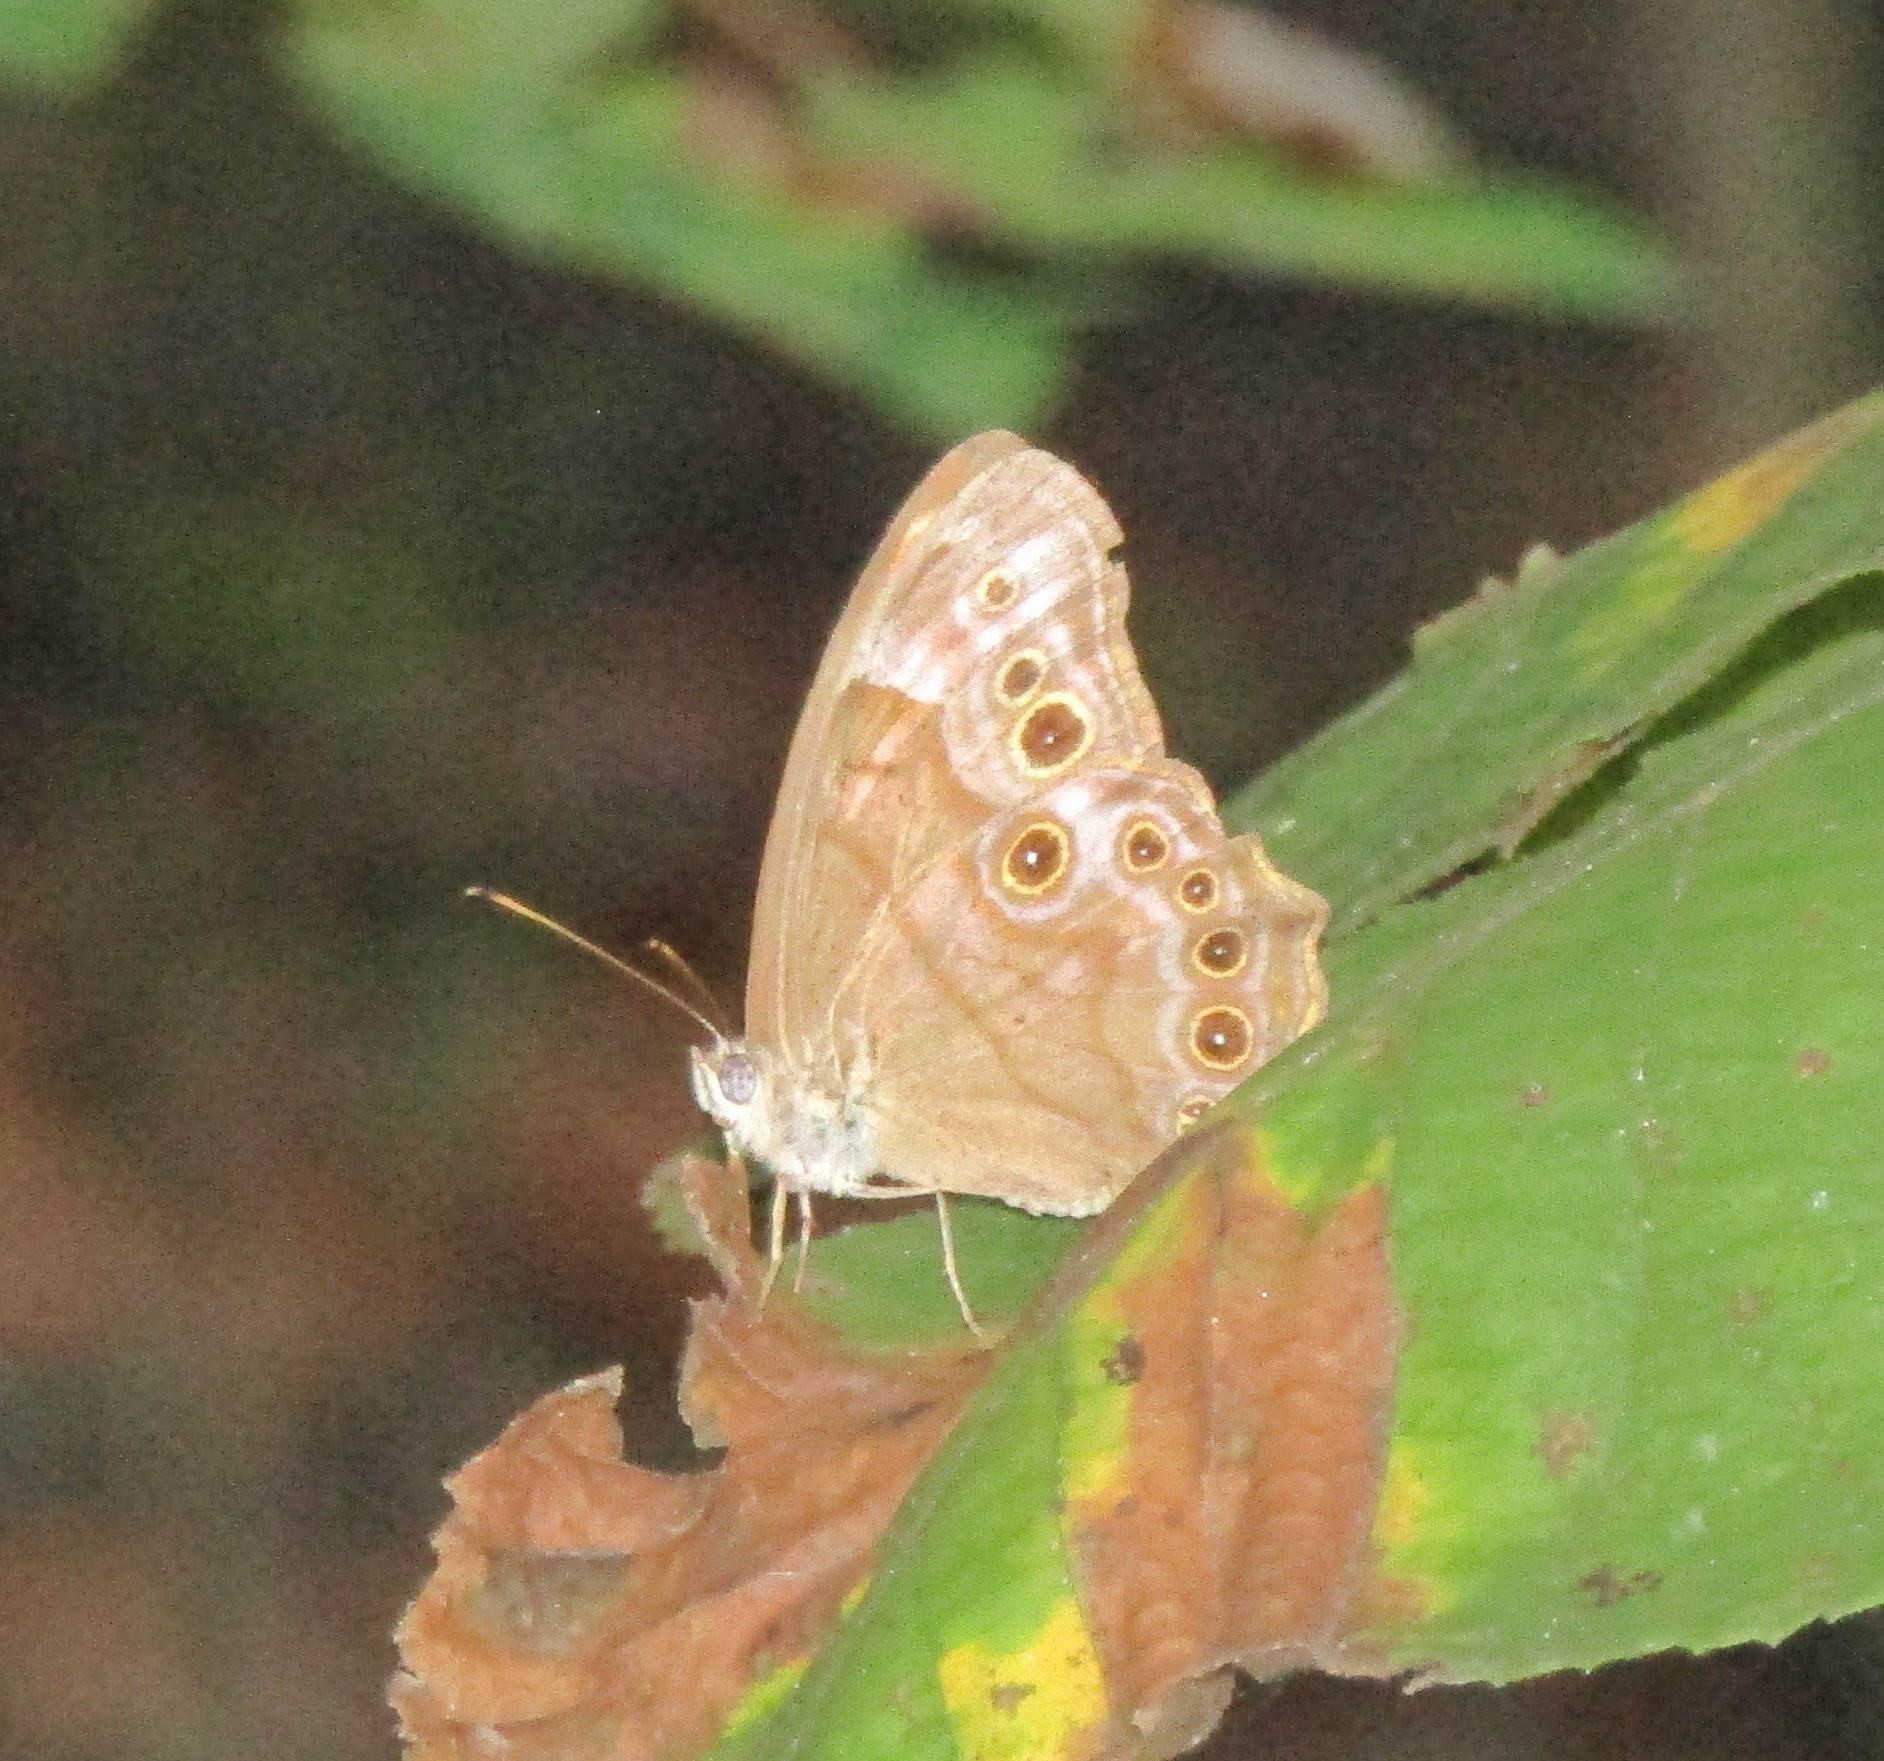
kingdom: Animalia
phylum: Arthropoda
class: Insecta
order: Lepidoptera
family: Nymphalidae
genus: Lethe
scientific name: Lethe anthedon
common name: Northern pearly-eye
